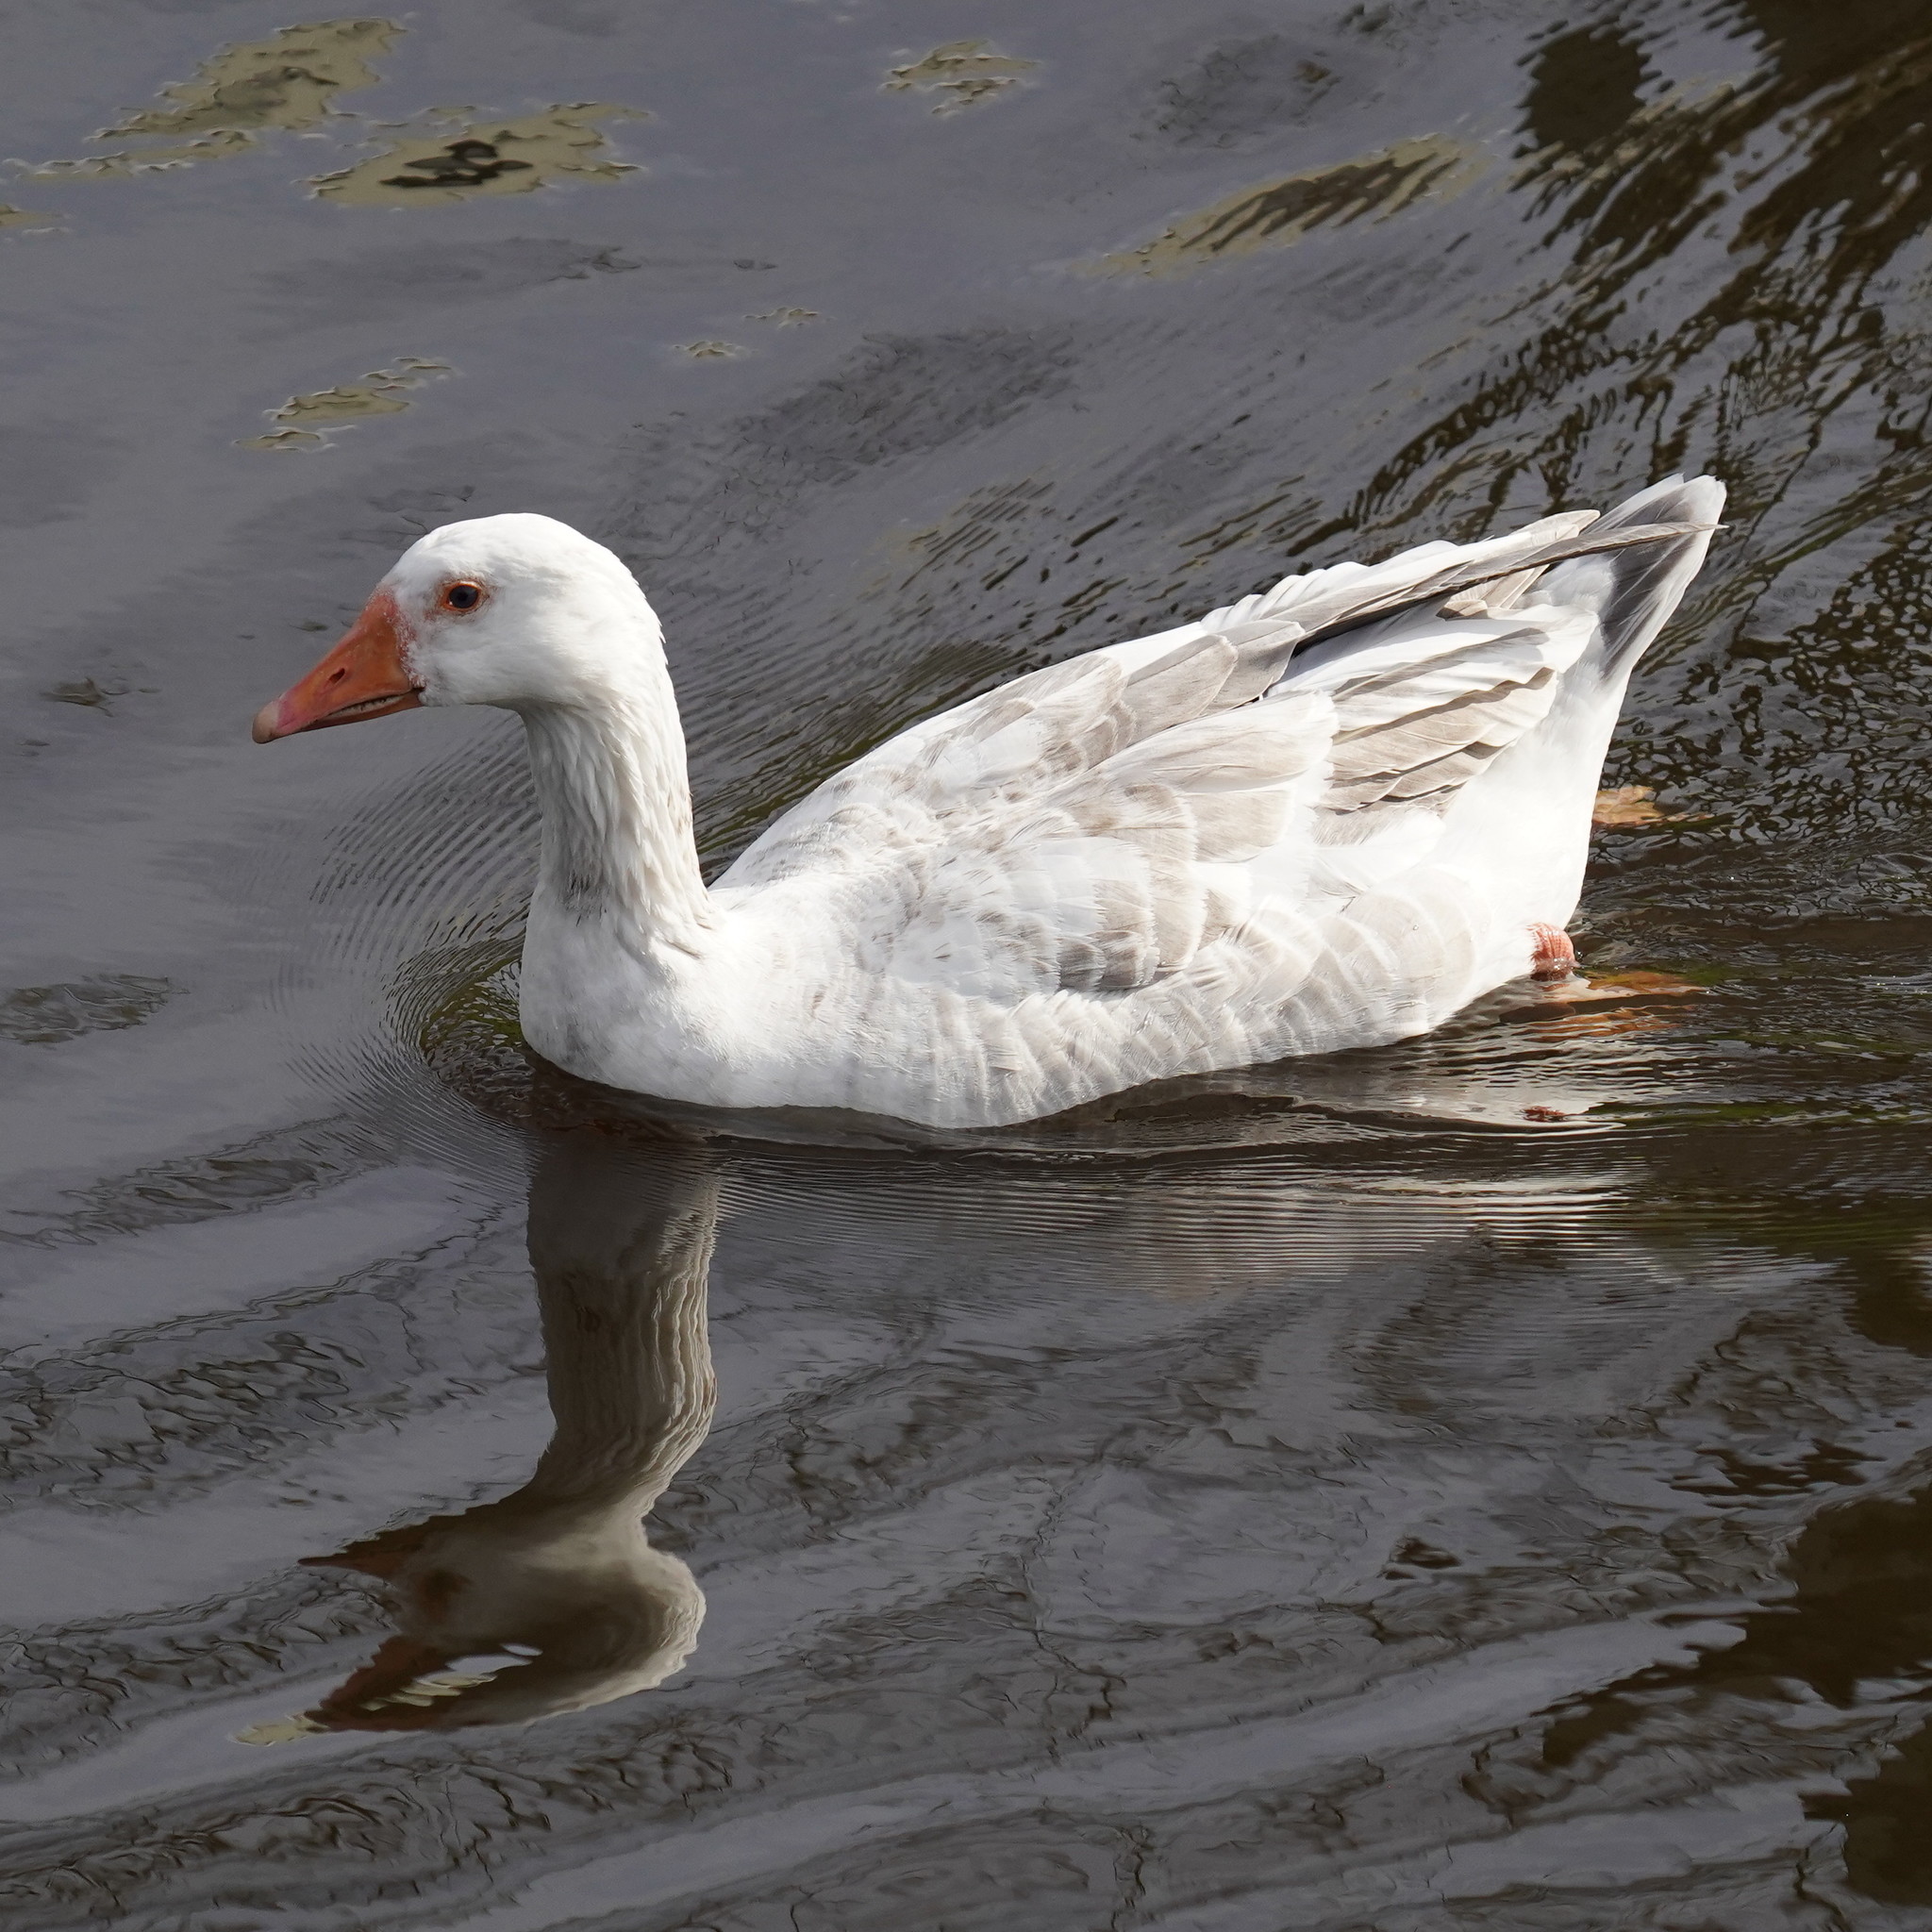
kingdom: Animalia
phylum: Chordata
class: Aves
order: Anseriformes
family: Anatidae
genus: Anser
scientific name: Anser anser
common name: Greylag goose
